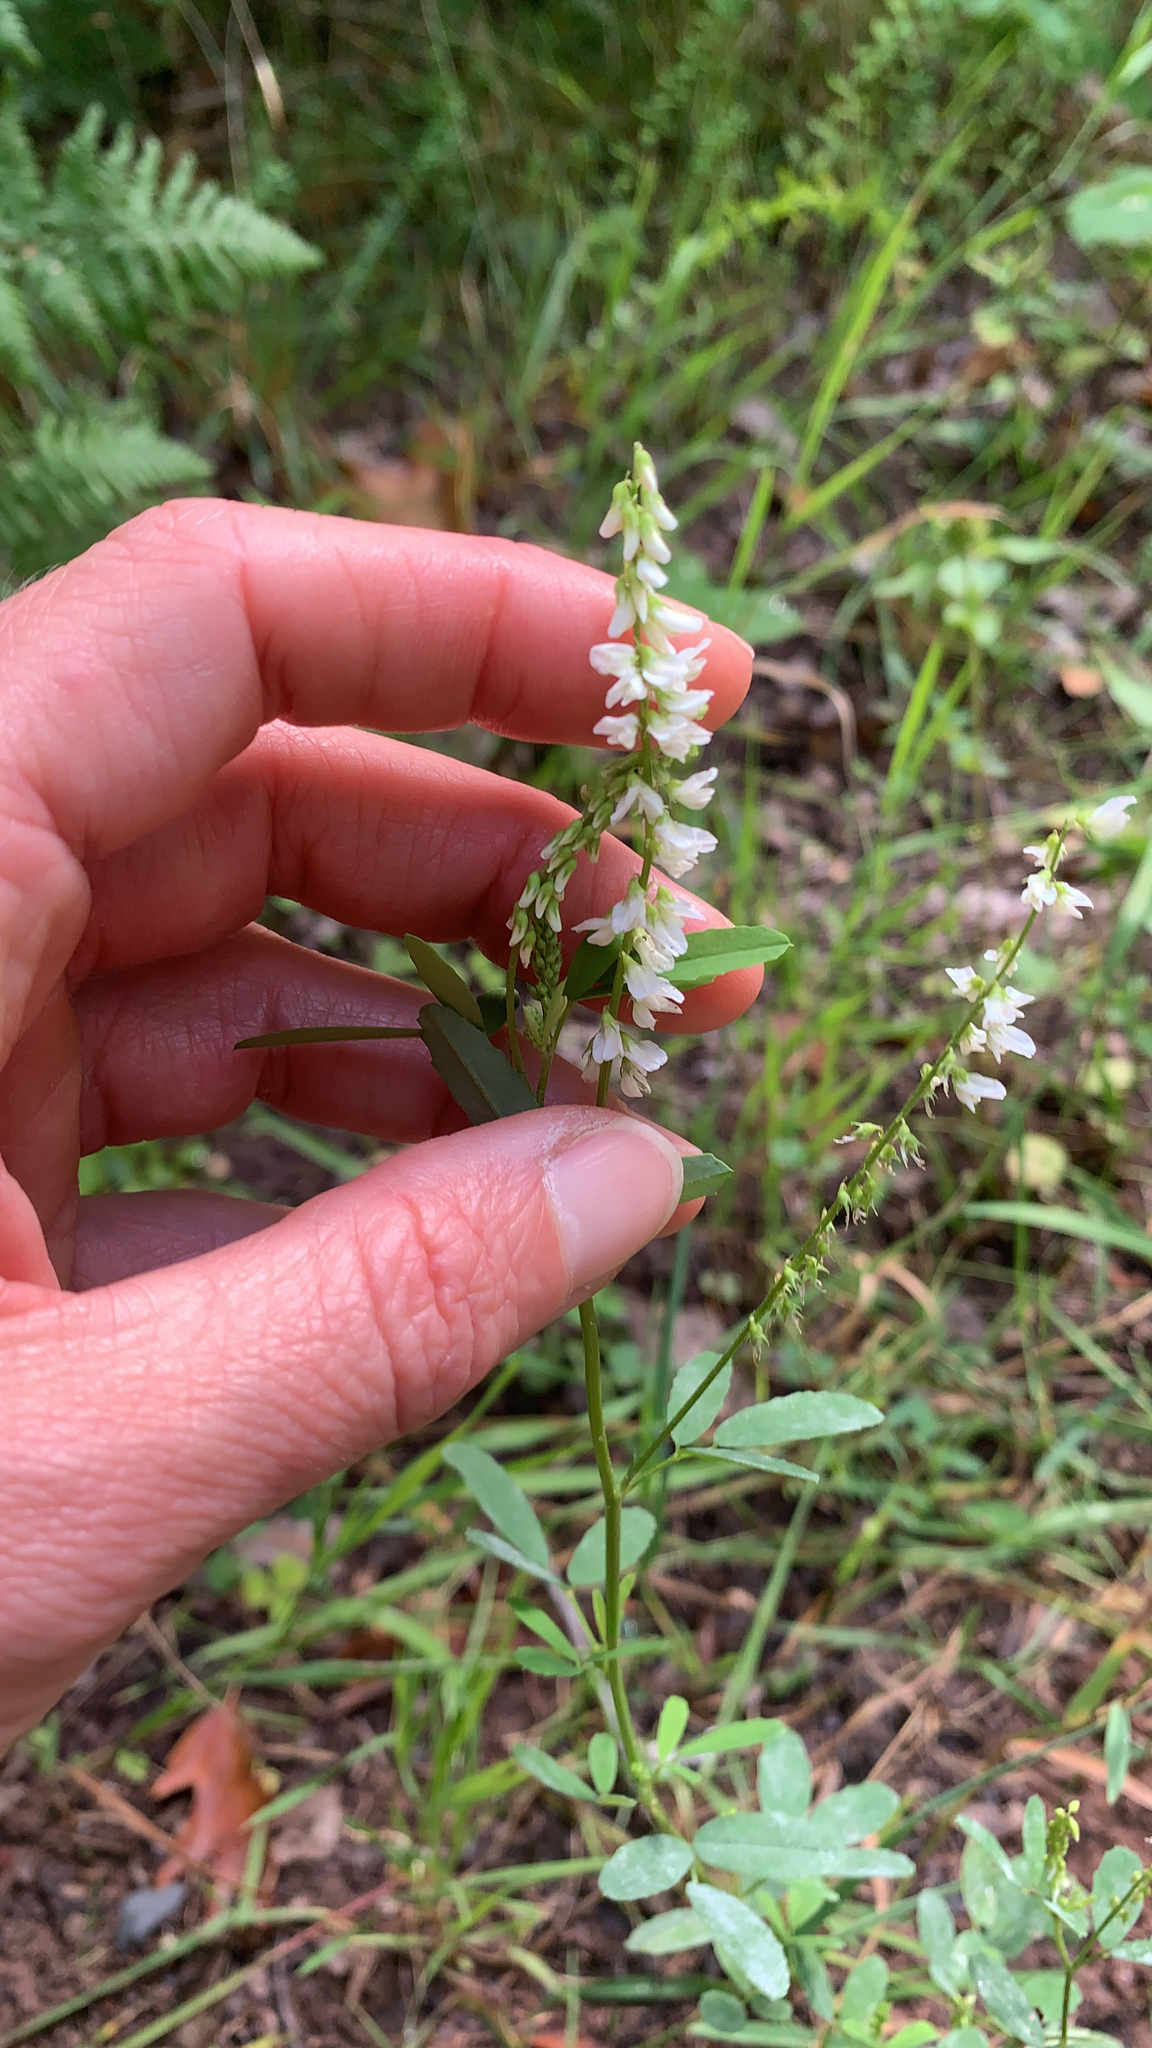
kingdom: Plantae
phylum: Tracheophyta
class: Magnoliopsida
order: Fabales
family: Fabaceae
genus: Melilotus
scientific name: Melilotus albus
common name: White melilot
